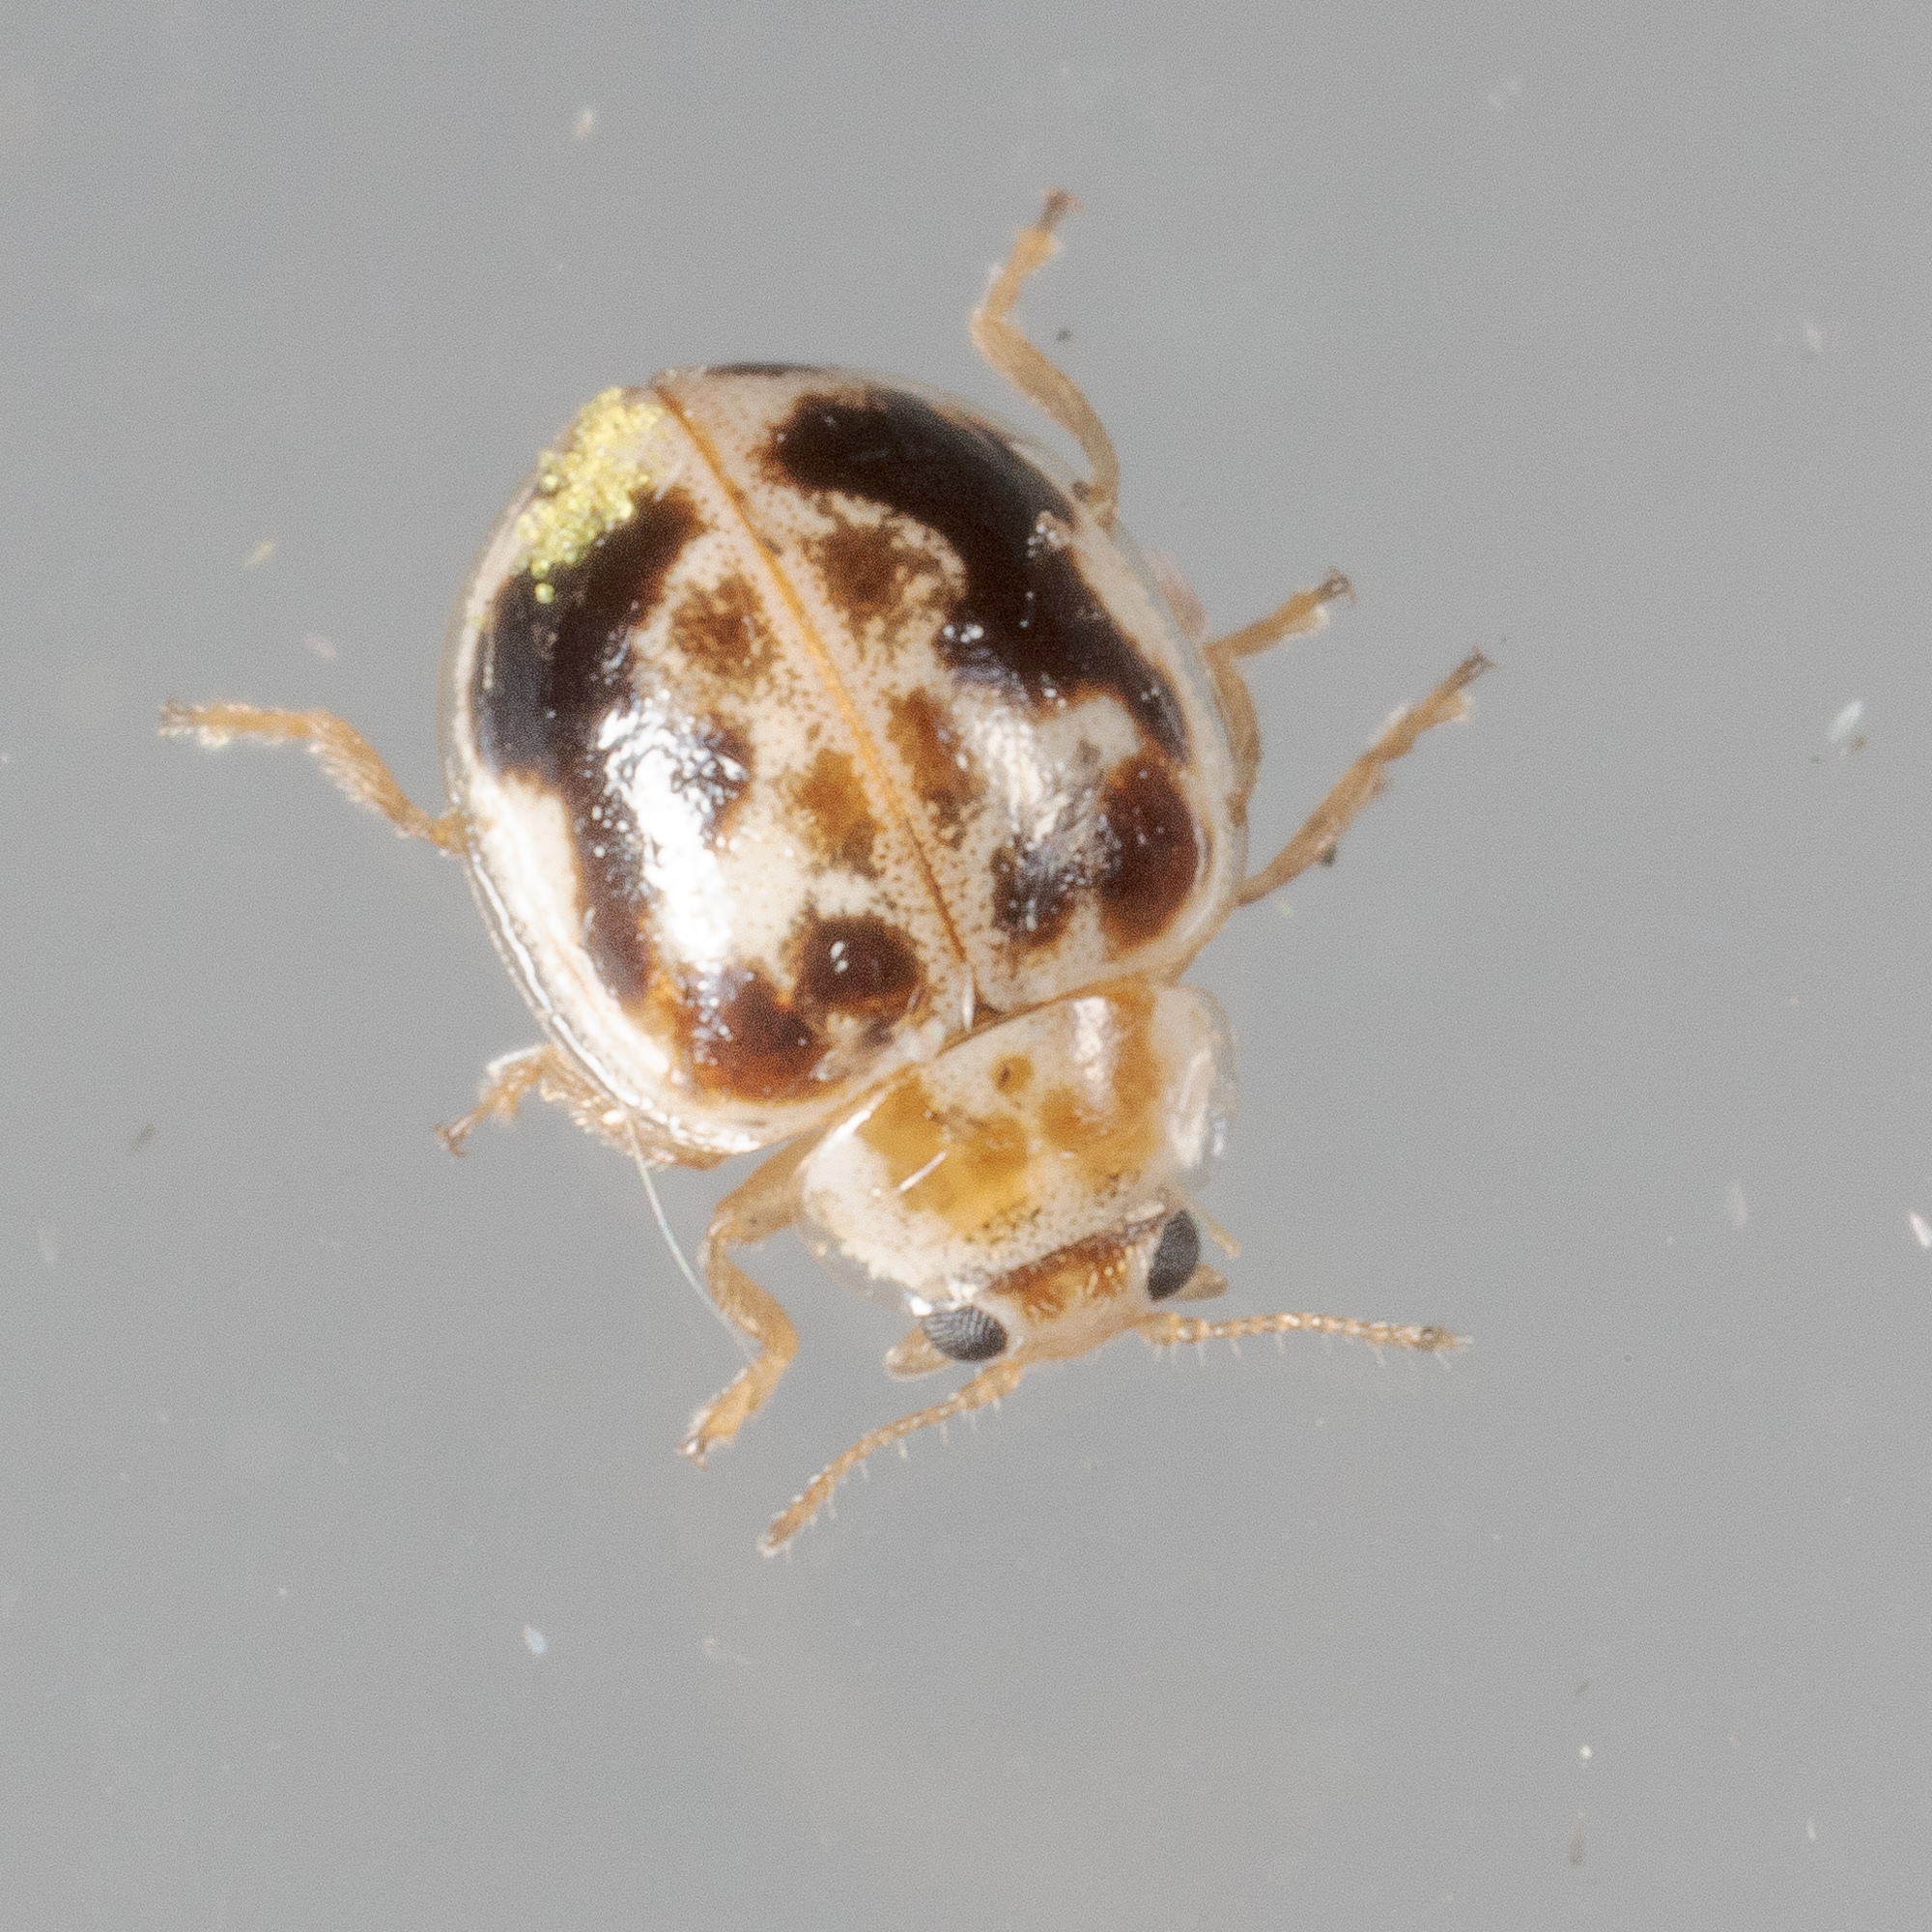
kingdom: Animalia
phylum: Arthropoda
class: Insecta
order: Coleoptera
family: Coccinellidae
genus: Psyllobora
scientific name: Psyllobora renifer
